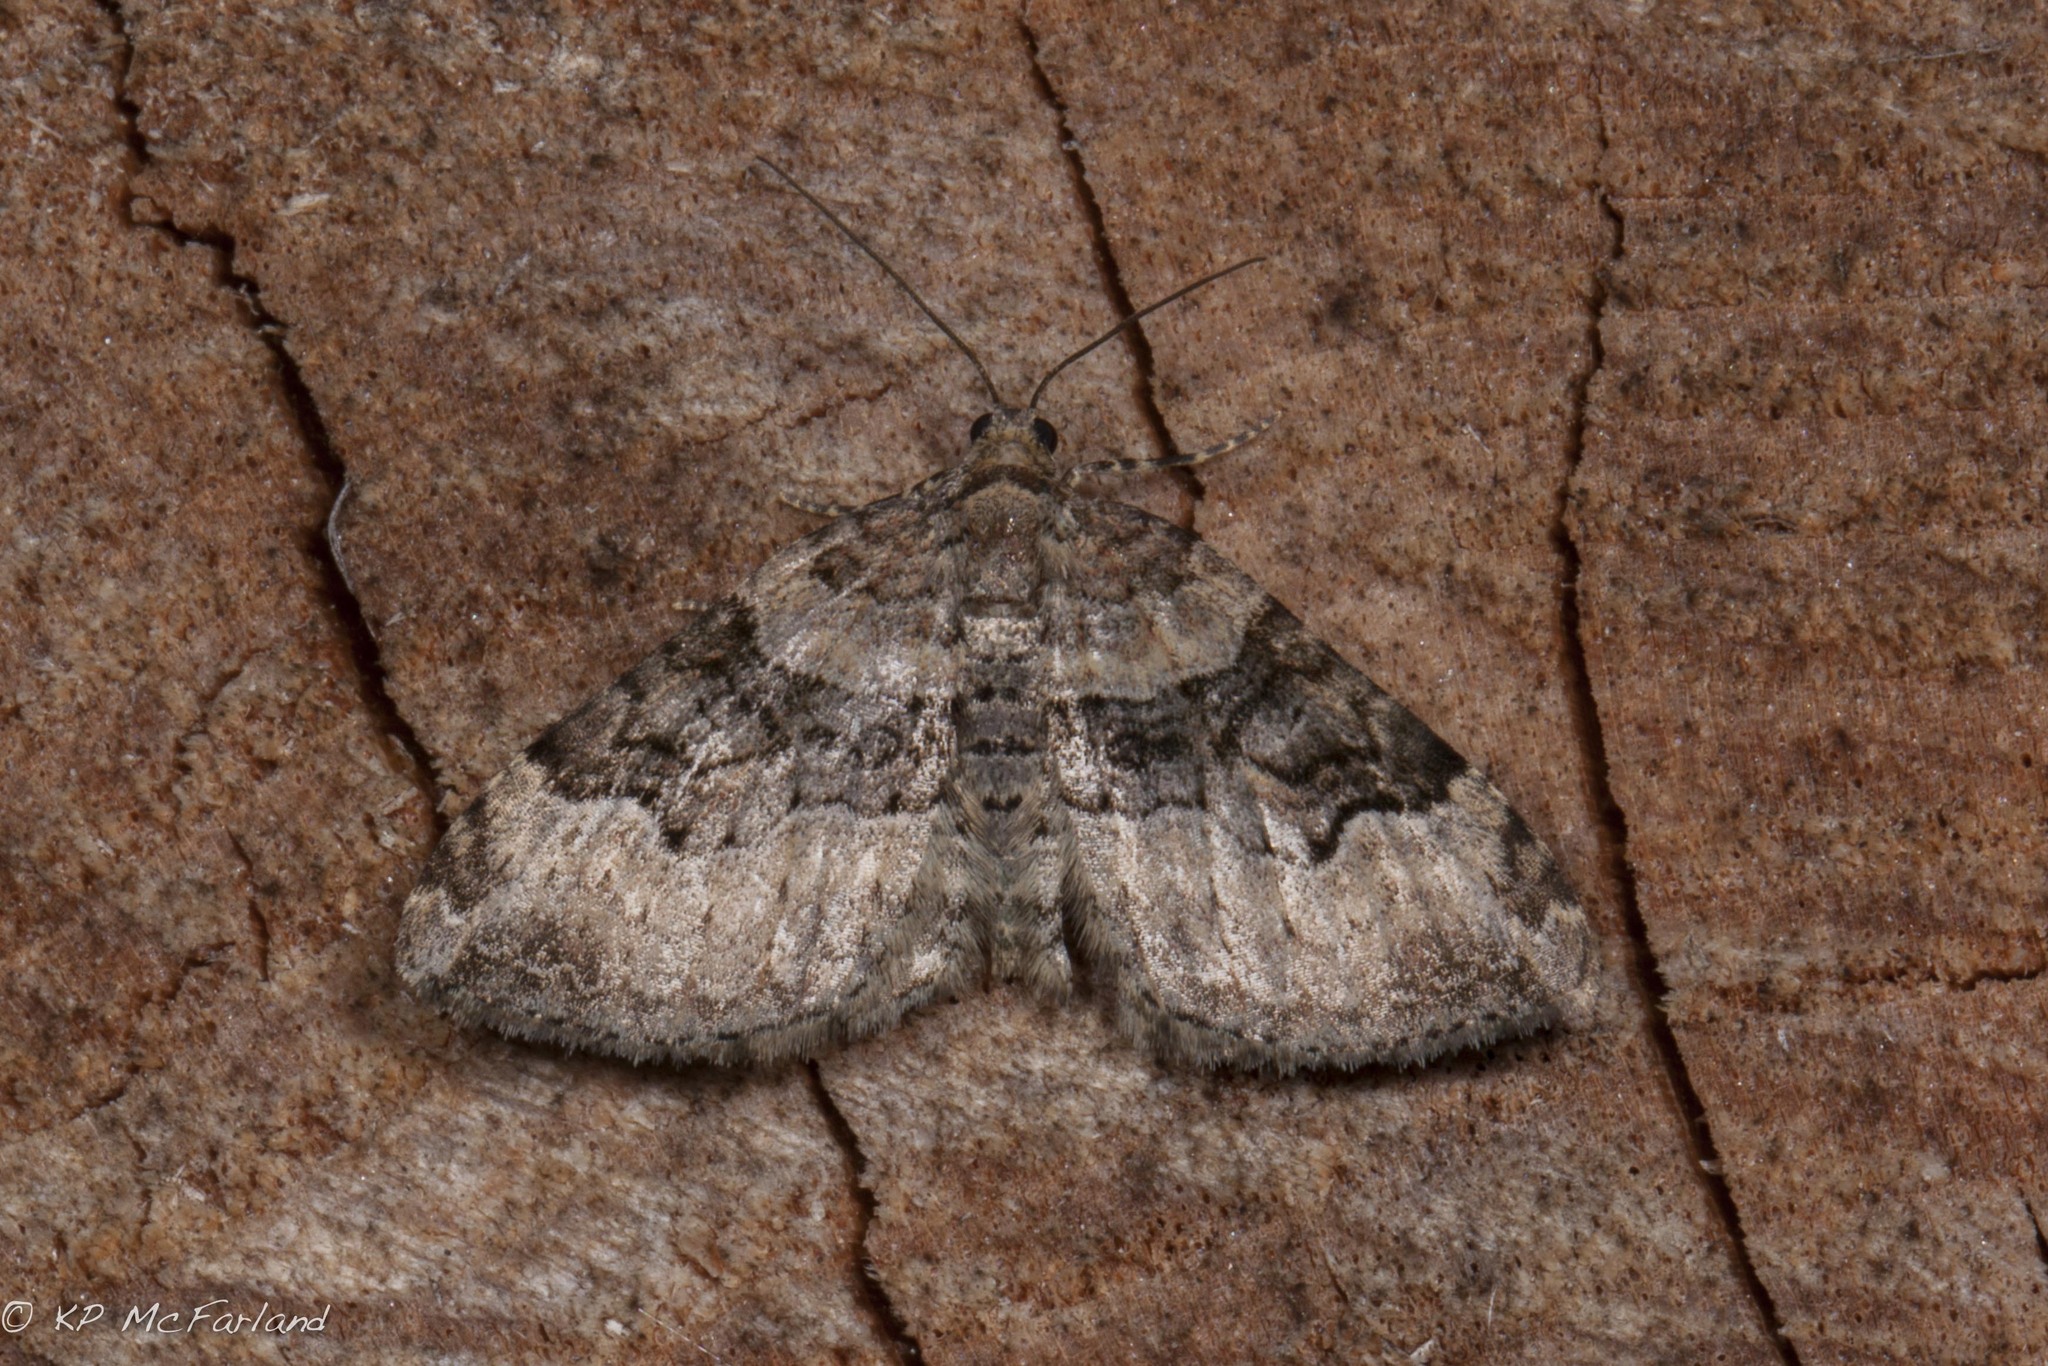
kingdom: Animalia
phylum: Arthropoda
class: Insecta
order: Lepidoptera
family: Geometridae
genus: Xanthorhoe
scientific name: Xanthorhoe lacustrata
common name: Toothed brown carpet
